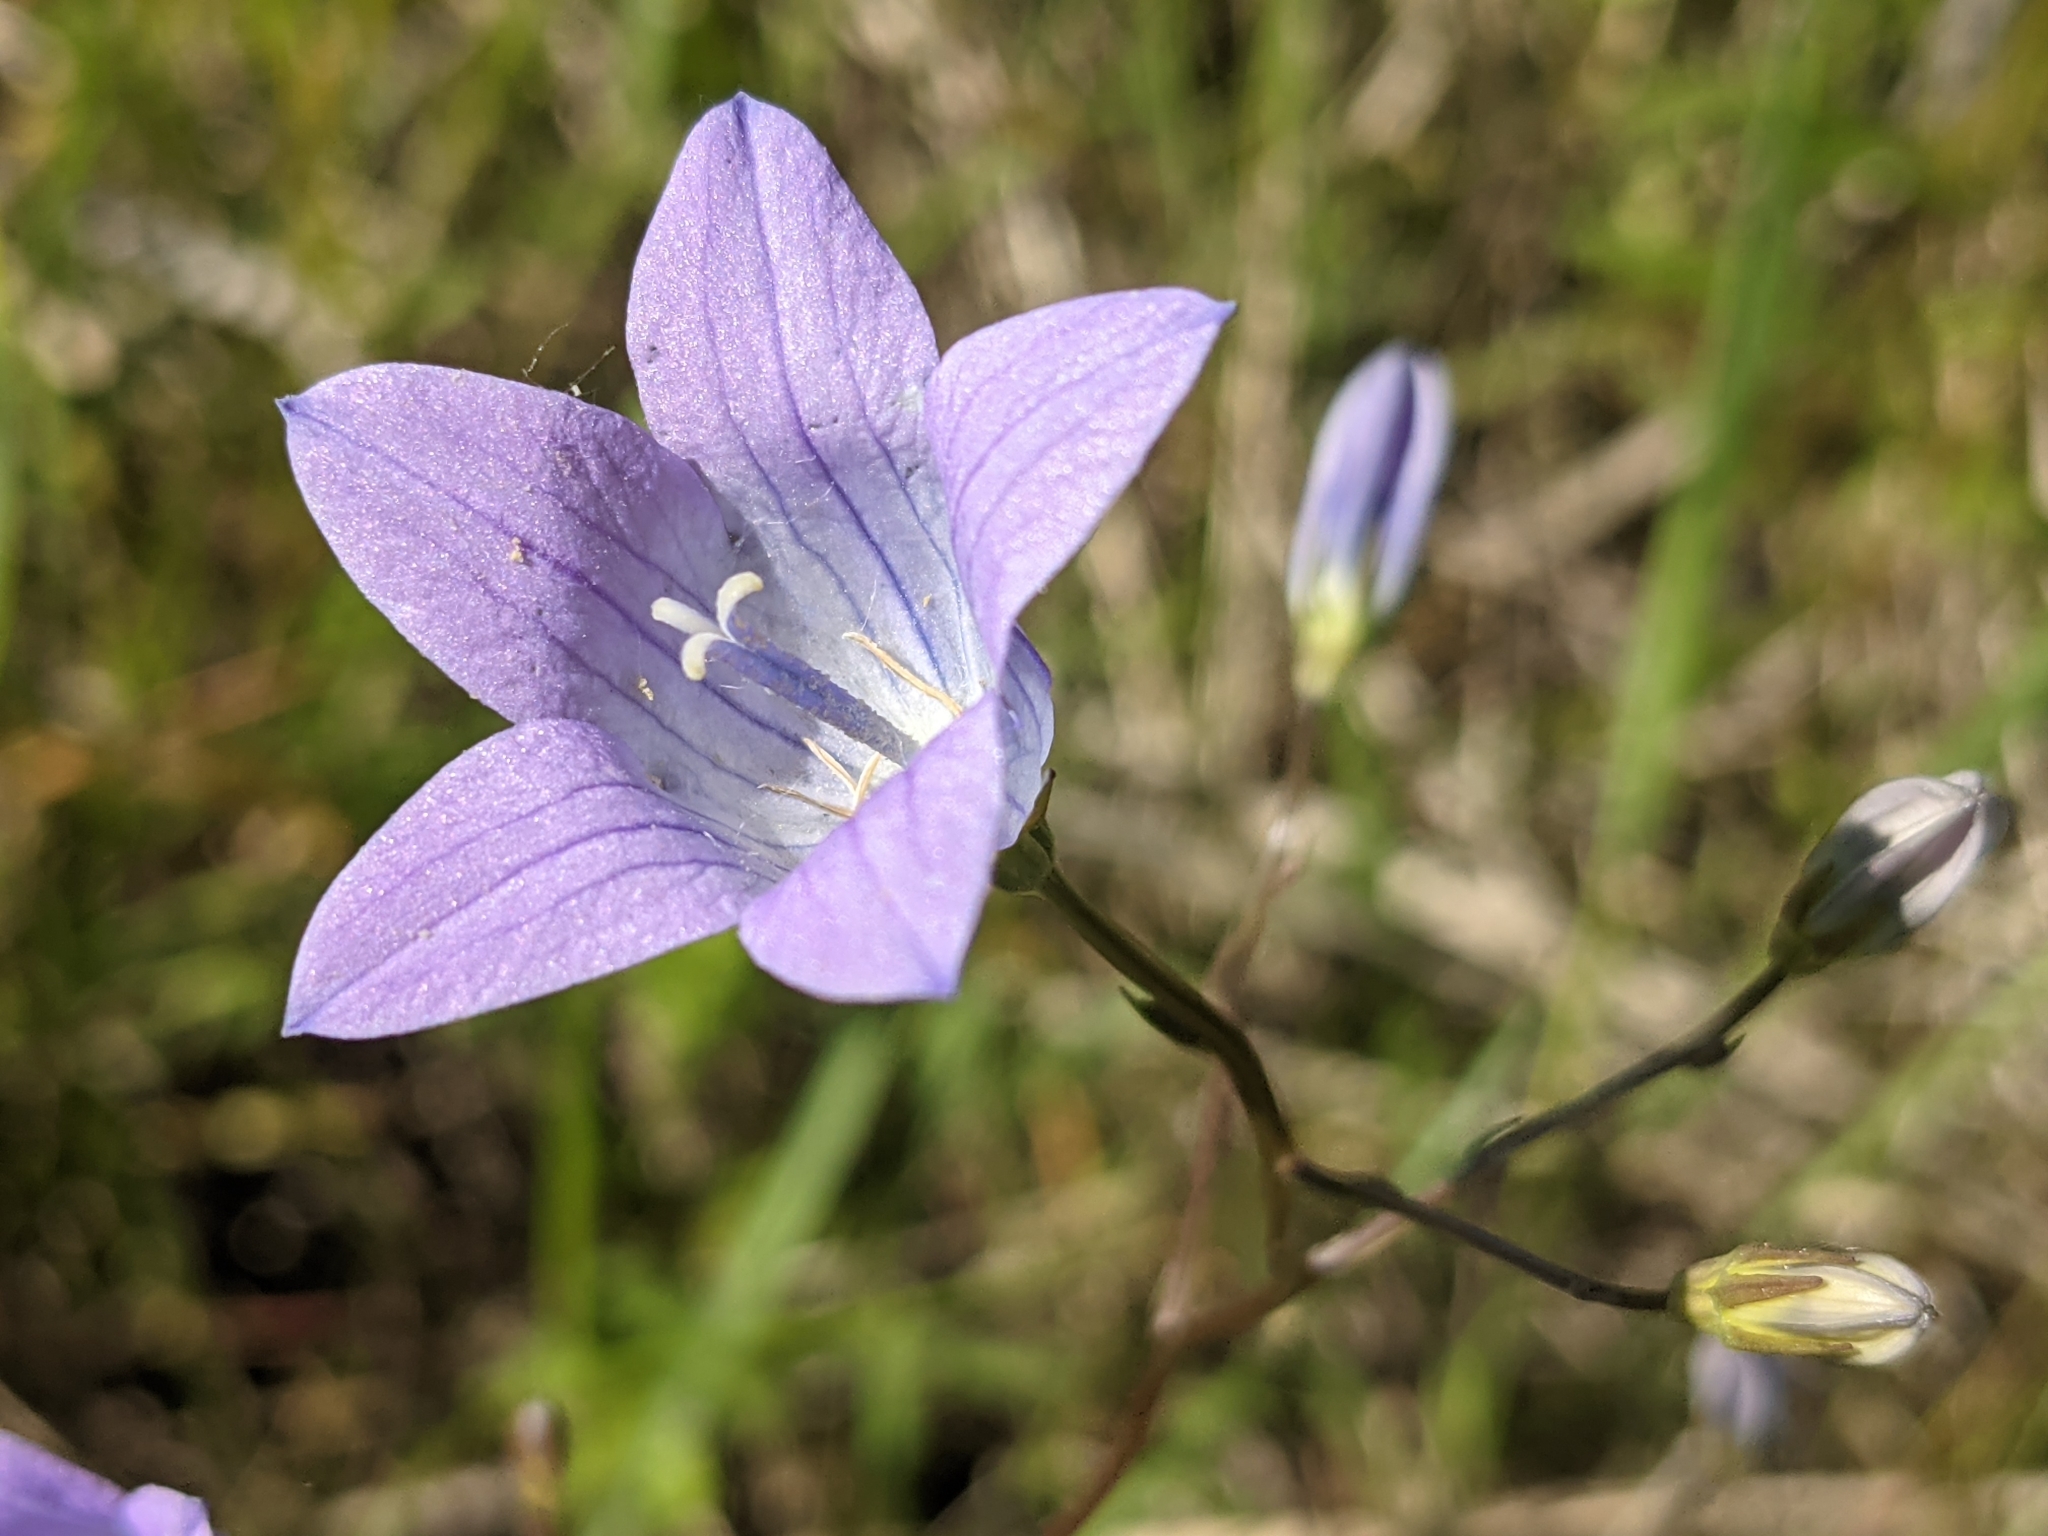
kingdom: Plantae
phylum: Tracheophyta
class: Magnoliopsida
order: Asterales
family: Campanulaceae
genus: Campanula
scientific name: Campanula patula
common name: Spreading bellflower
